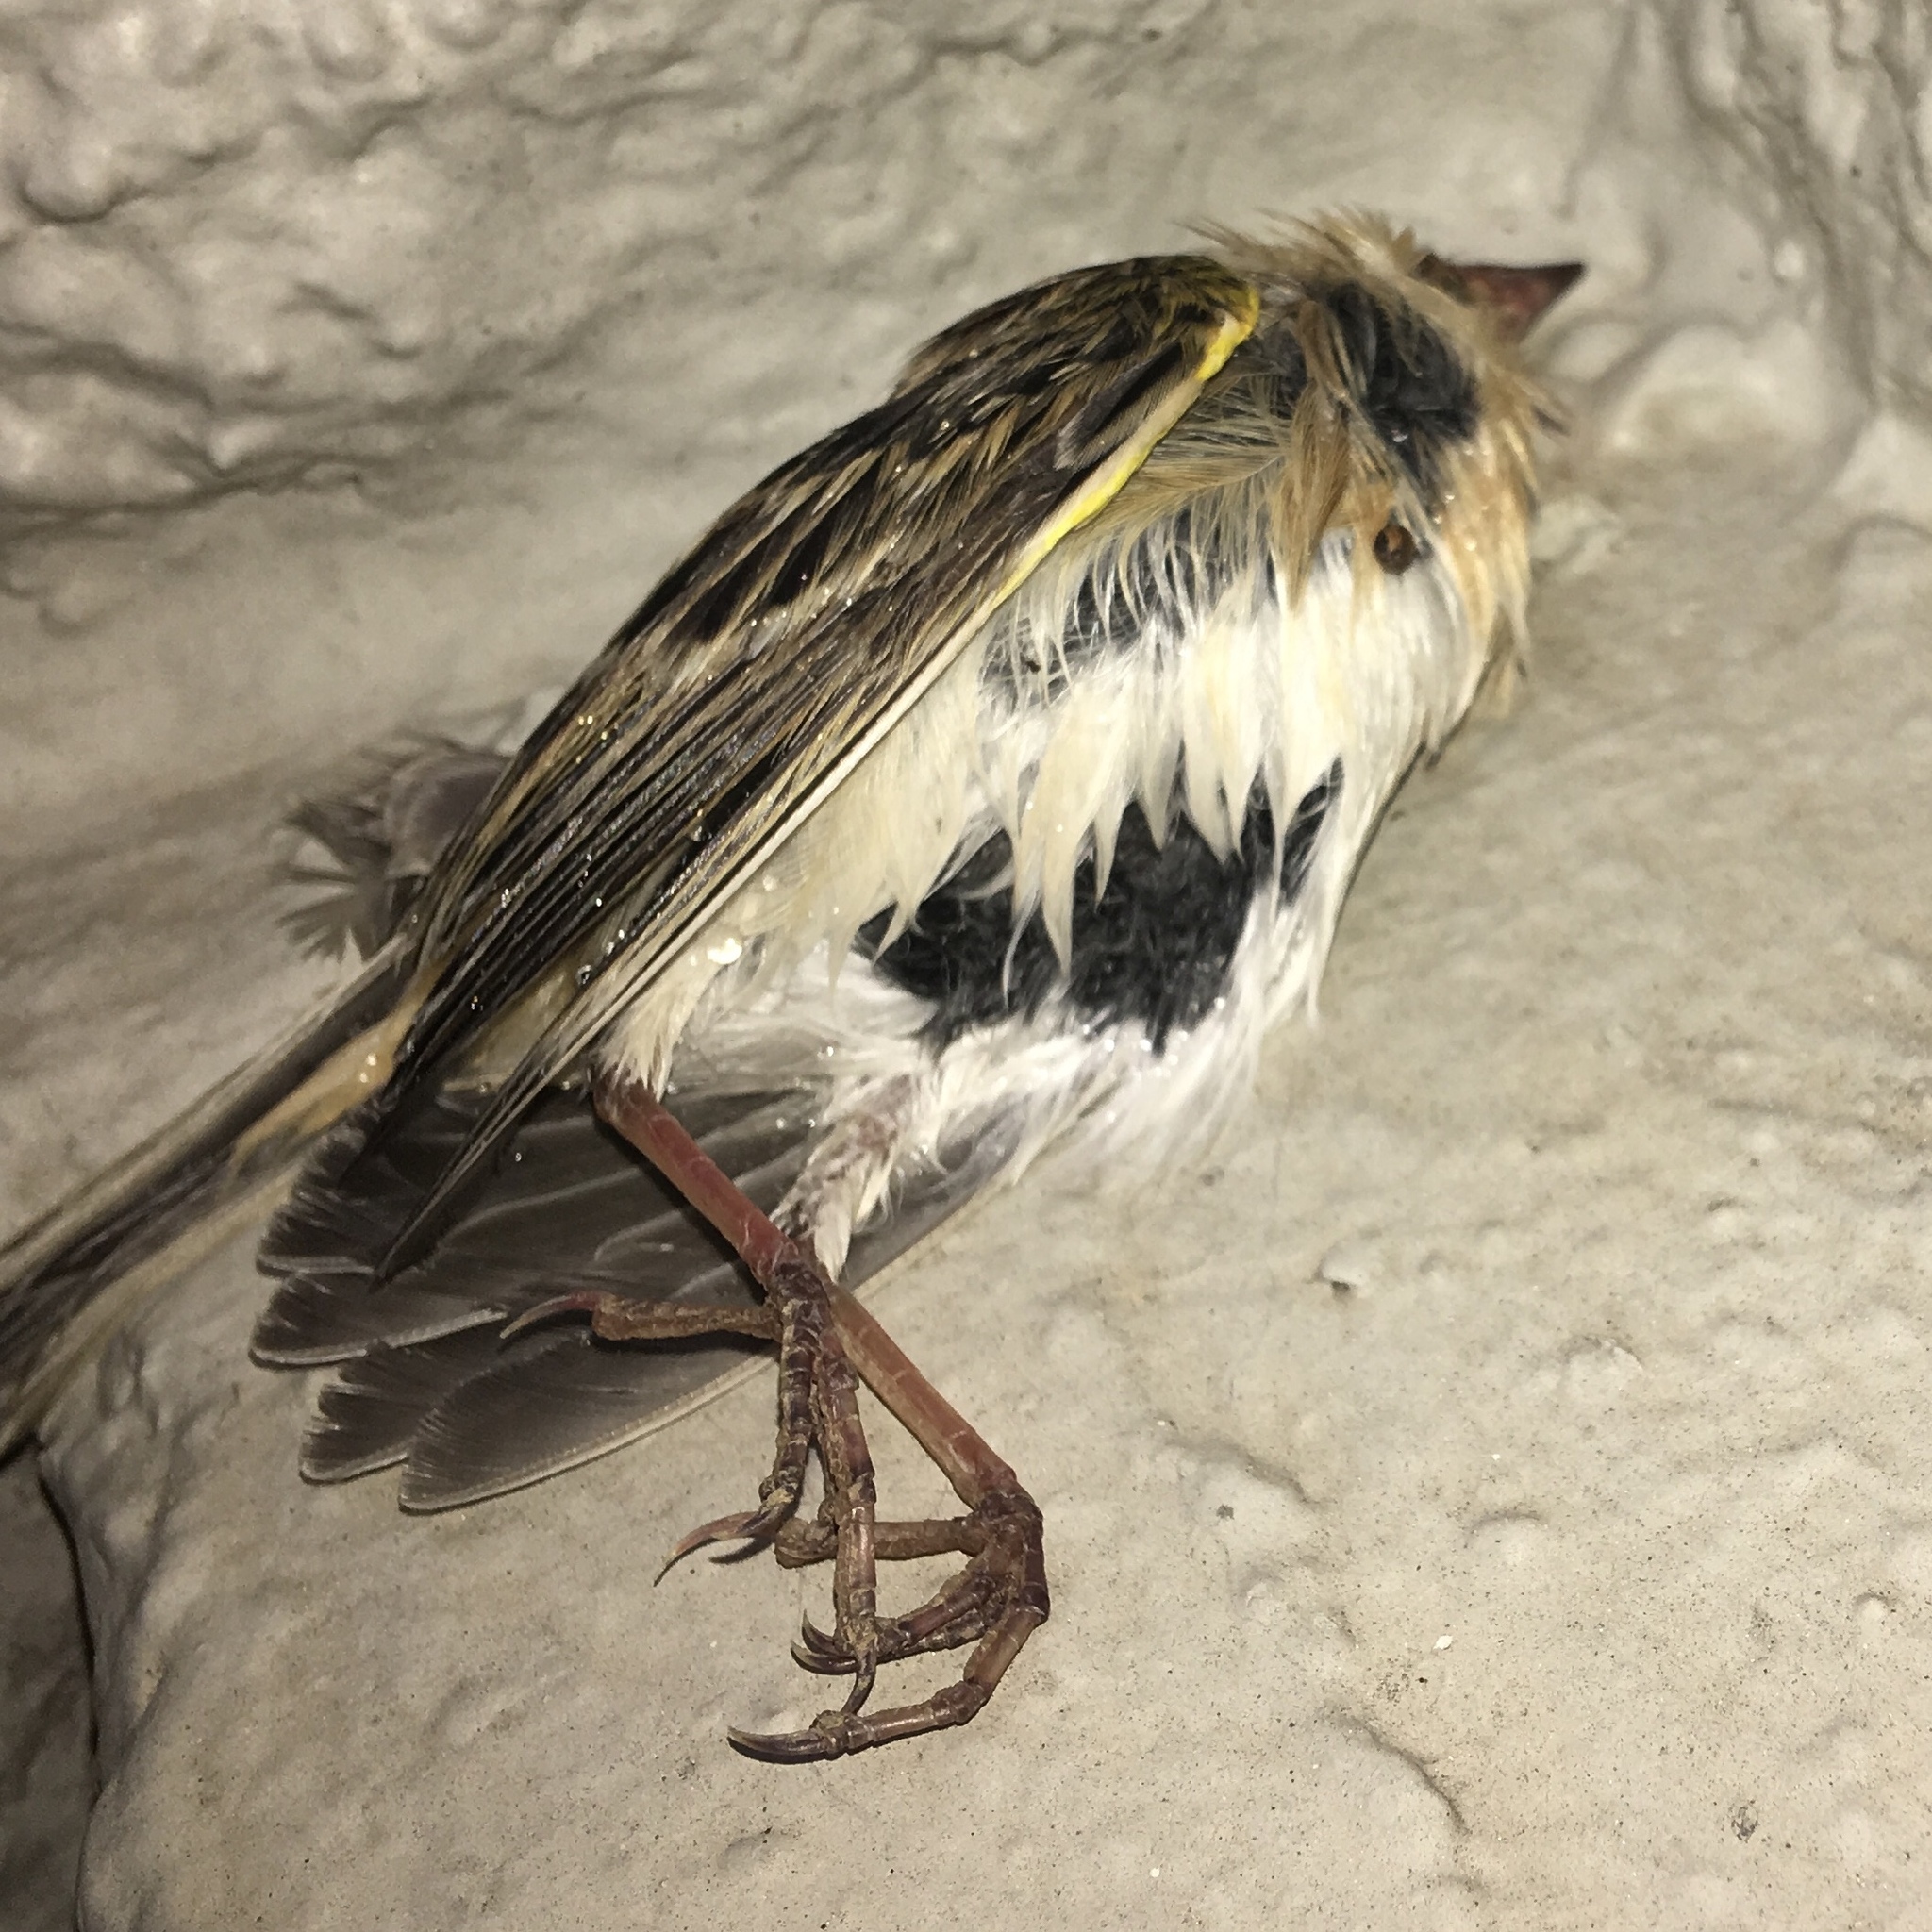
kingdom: Animalia
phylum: Chordata
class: Aves
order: Passeriformes
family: Passerellidae
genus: Ammodramus
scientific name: Ammodramus savannarum
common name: Grasshopper sparrow
